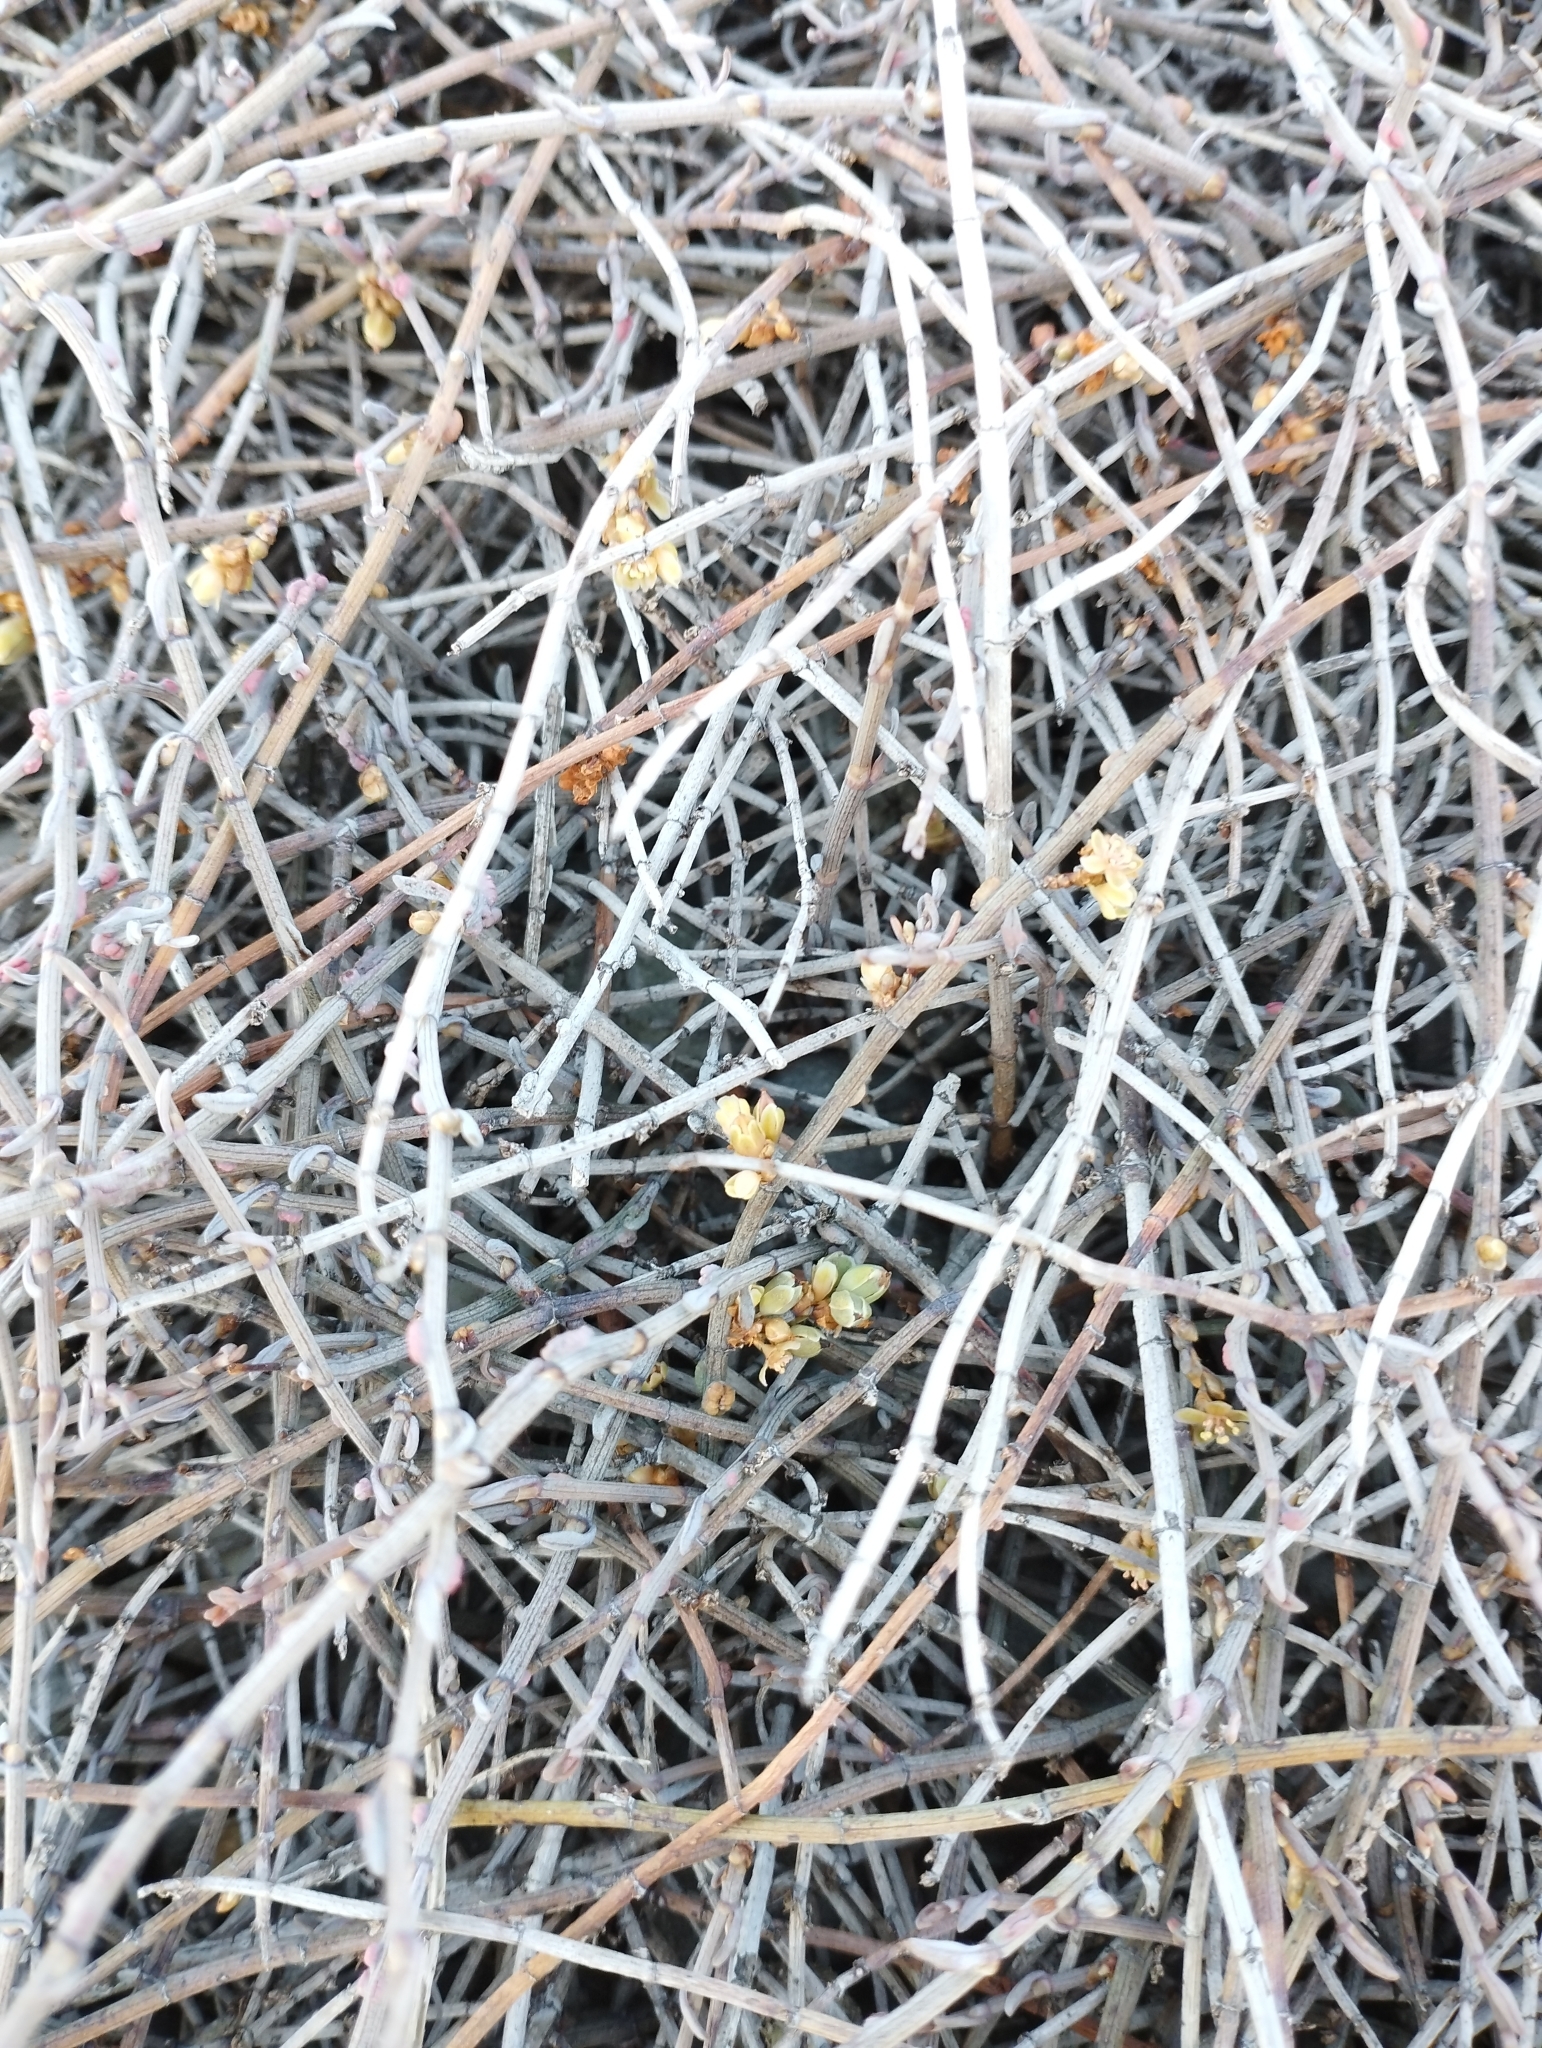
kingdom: Plantae
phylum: Tracheophyta
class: Magnoliopsida
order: Caryophyllales
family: Polygonaceae
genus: Muehlenbeckia
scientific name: Muehlenbeckia ephedroides
